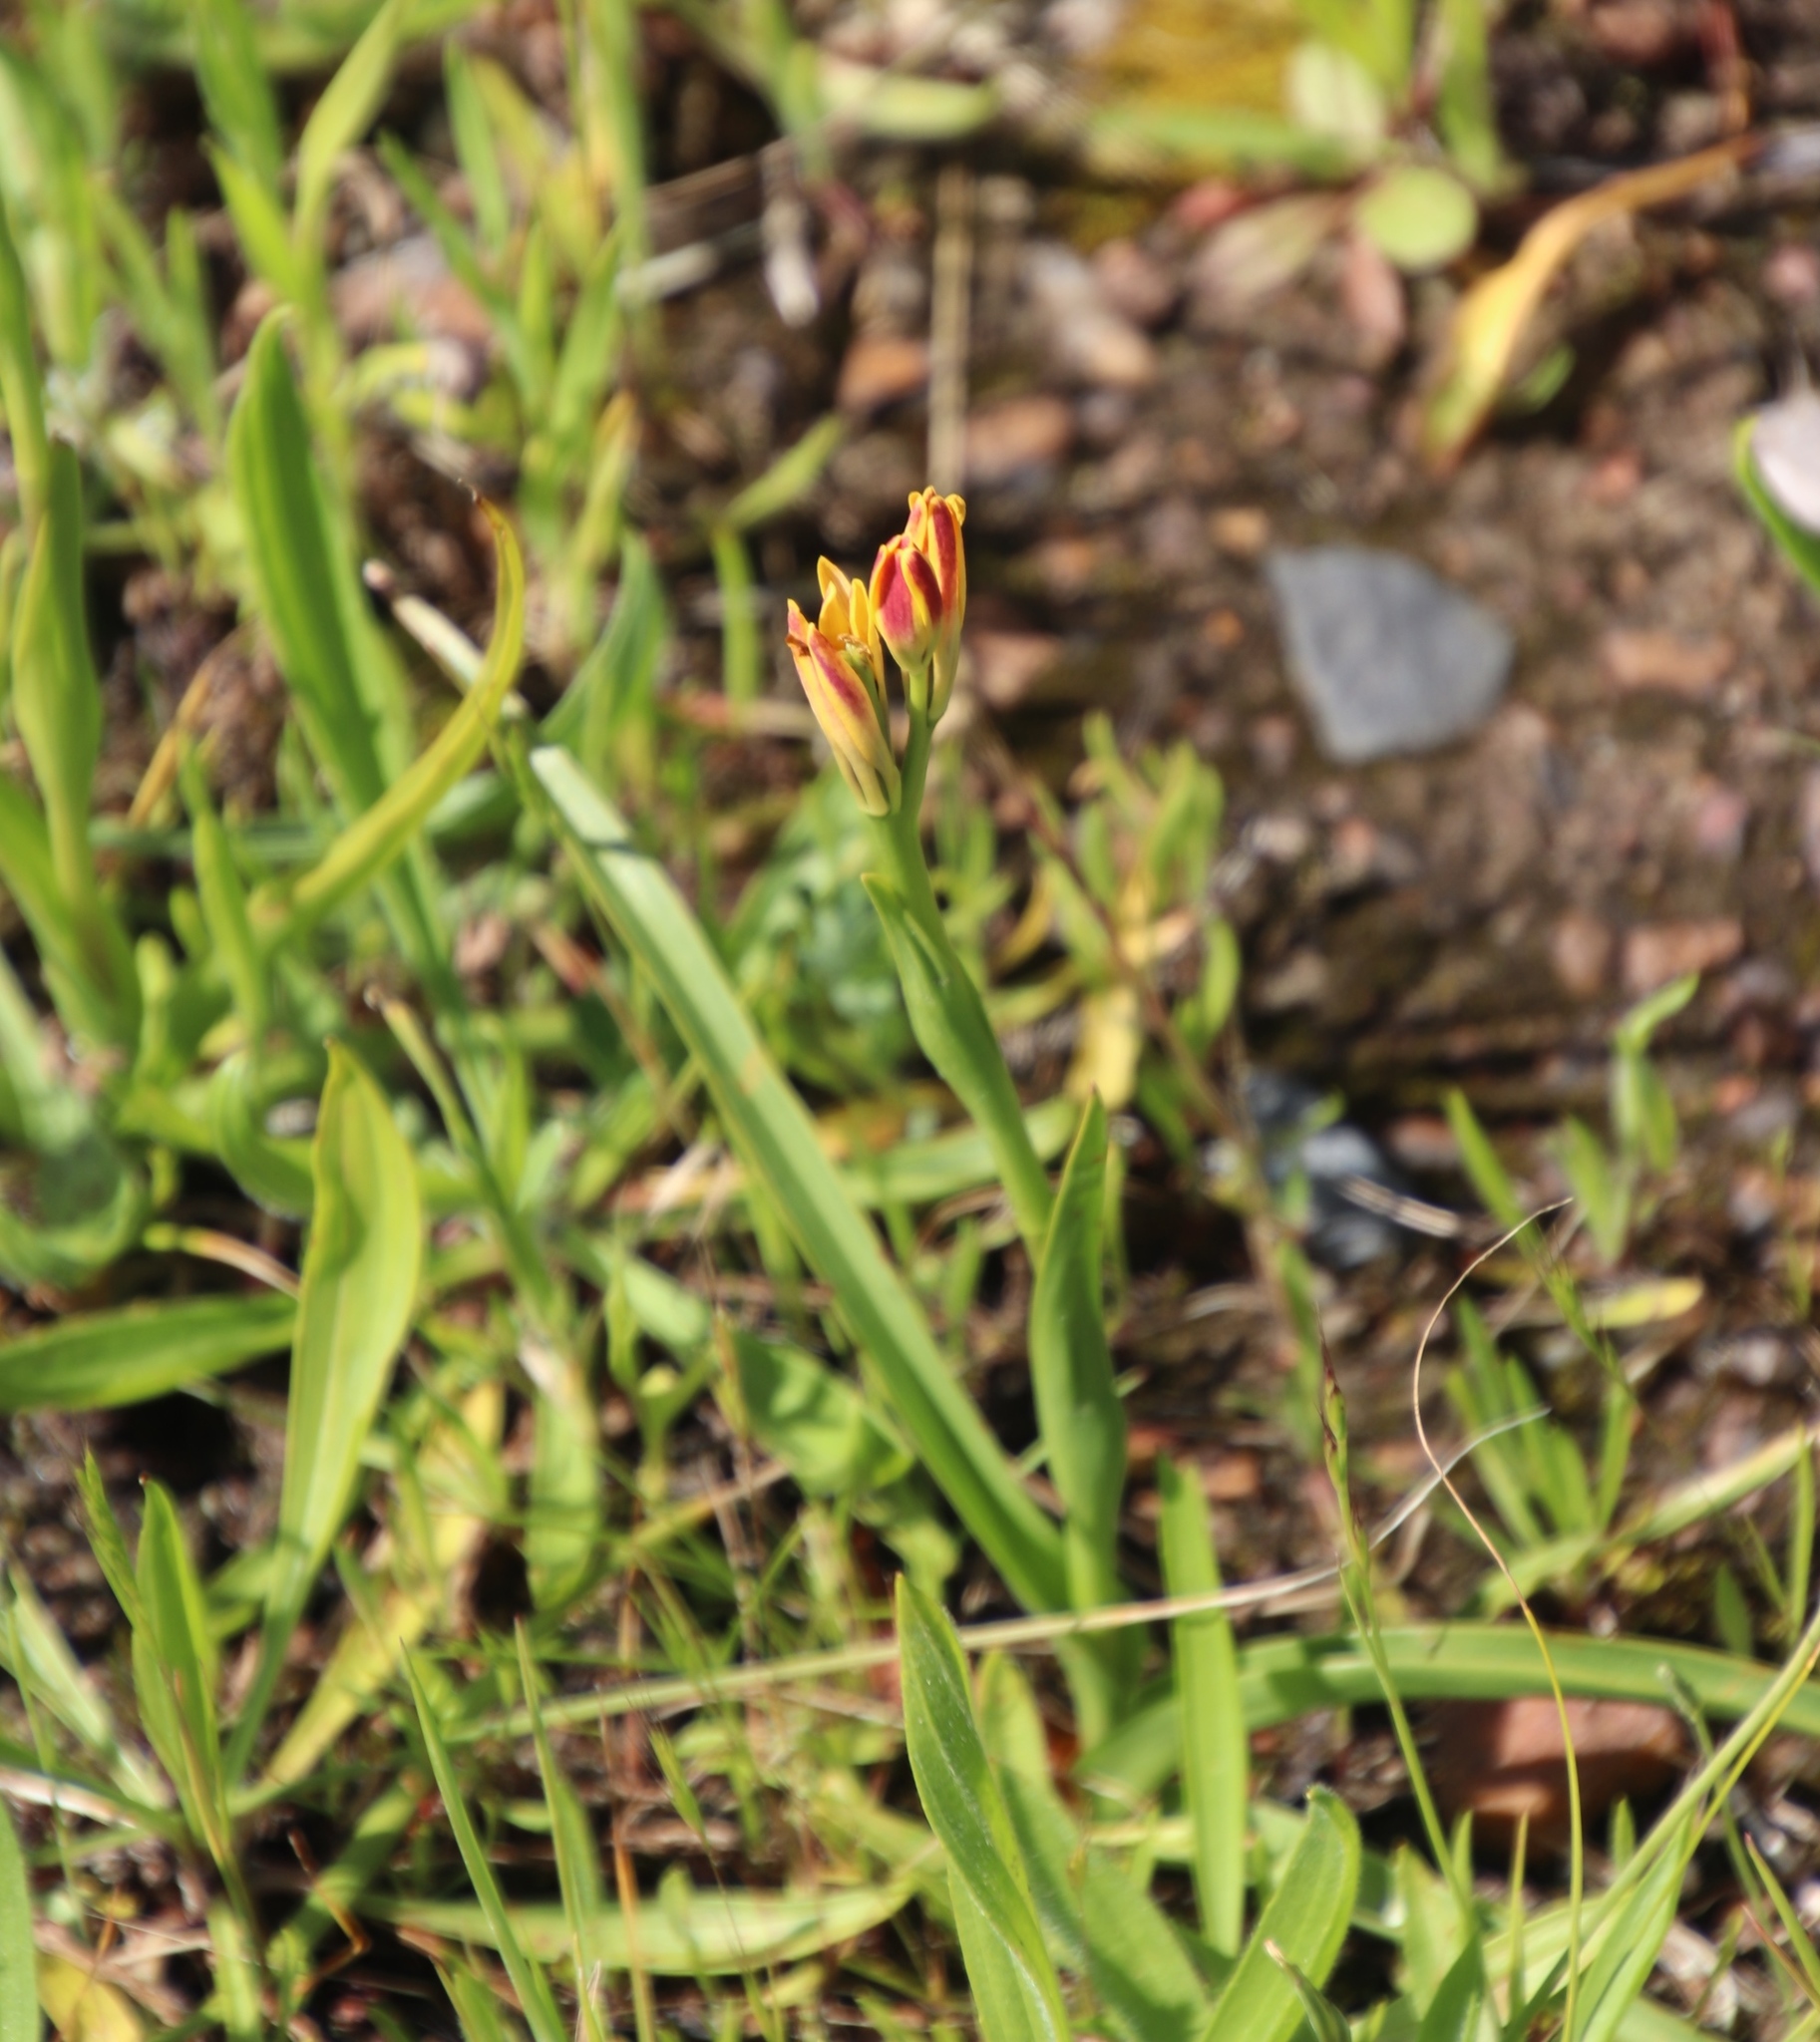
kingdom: Plantae
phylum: Tracheophyta
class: Liliopsida
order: Liliales
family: Colchicaceae
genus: Baeometra
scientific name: Baeometra uniflora
